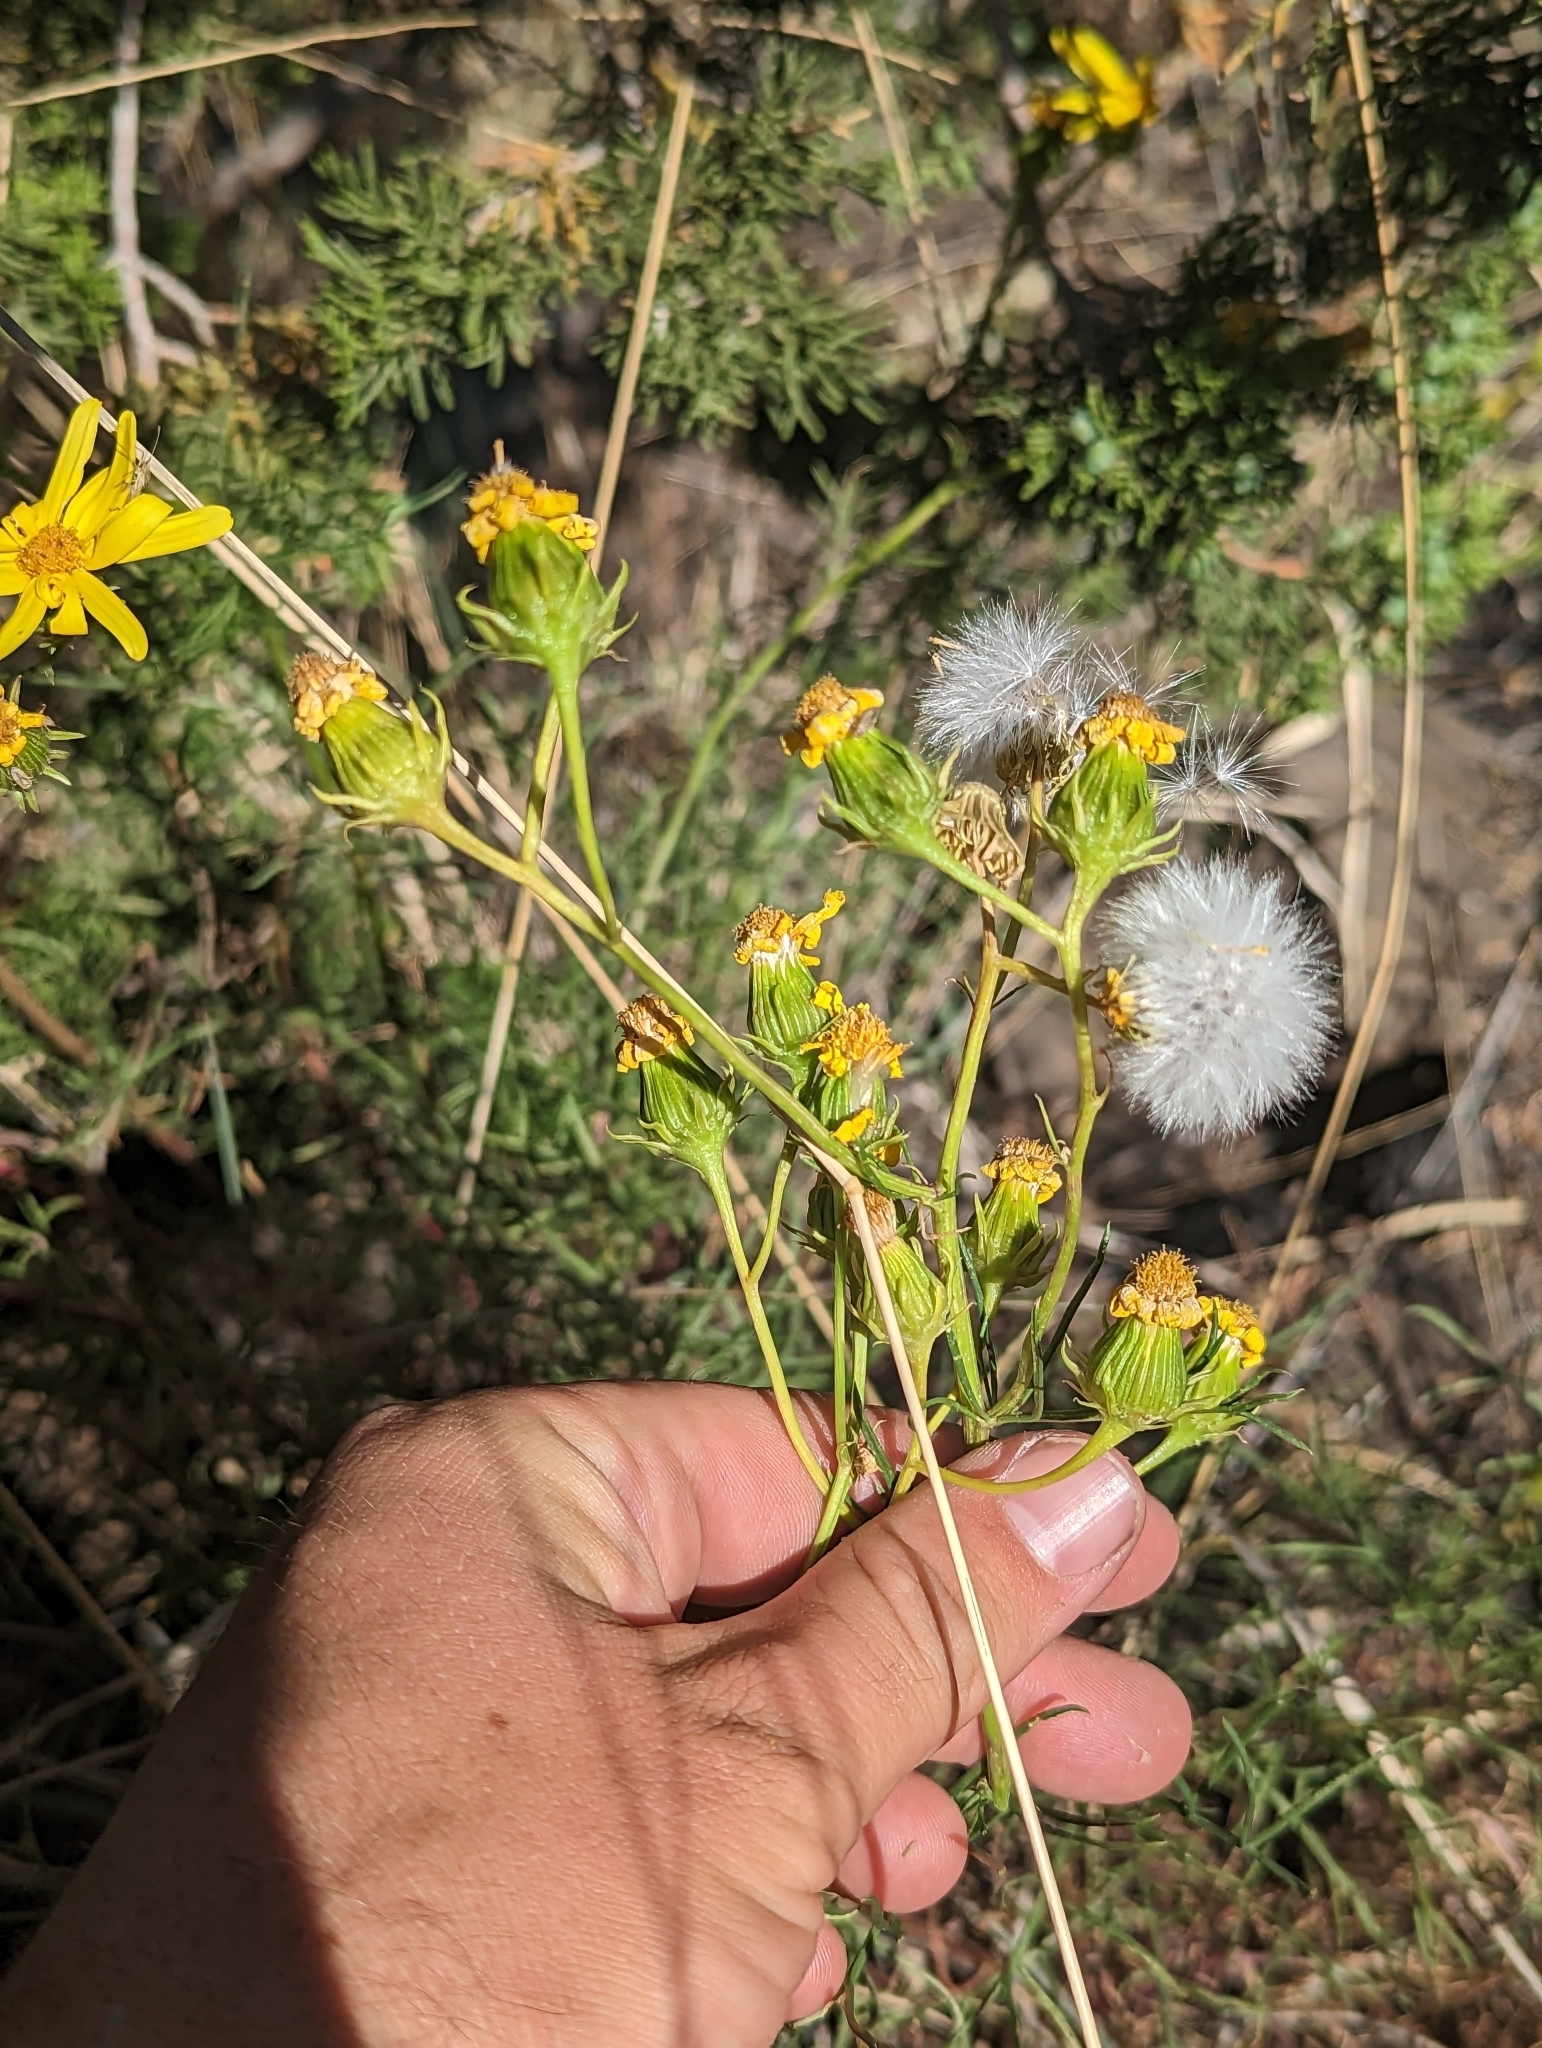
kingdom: Plantae
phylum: Tracheophyta
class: Magnoliopsida
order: Asterales
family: Asteraceae
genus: Senecio
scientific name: Senecio flaccidus
